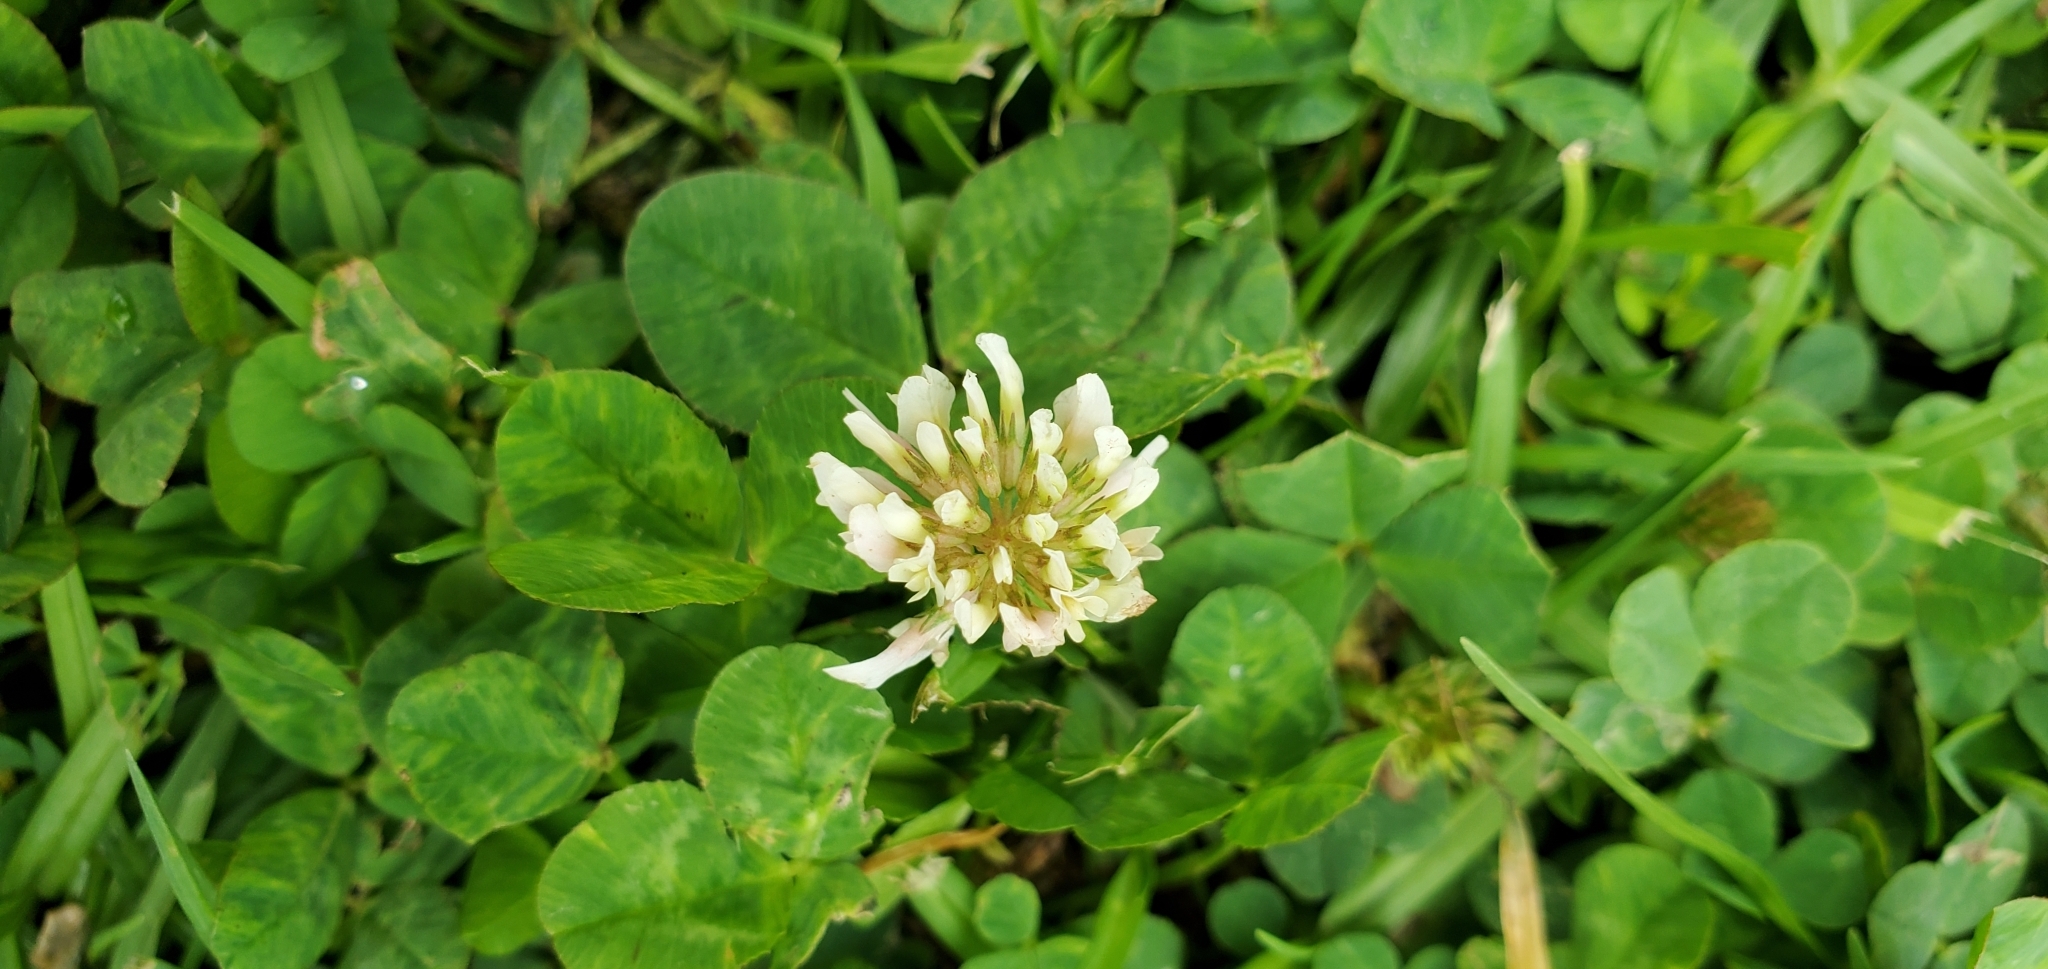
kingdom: Plantae
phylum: Tracheophyta
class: Magnoliopsida
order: Fabales
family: Fabaceae
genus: Trifolium
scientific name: Trifolium repens
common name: White clover
